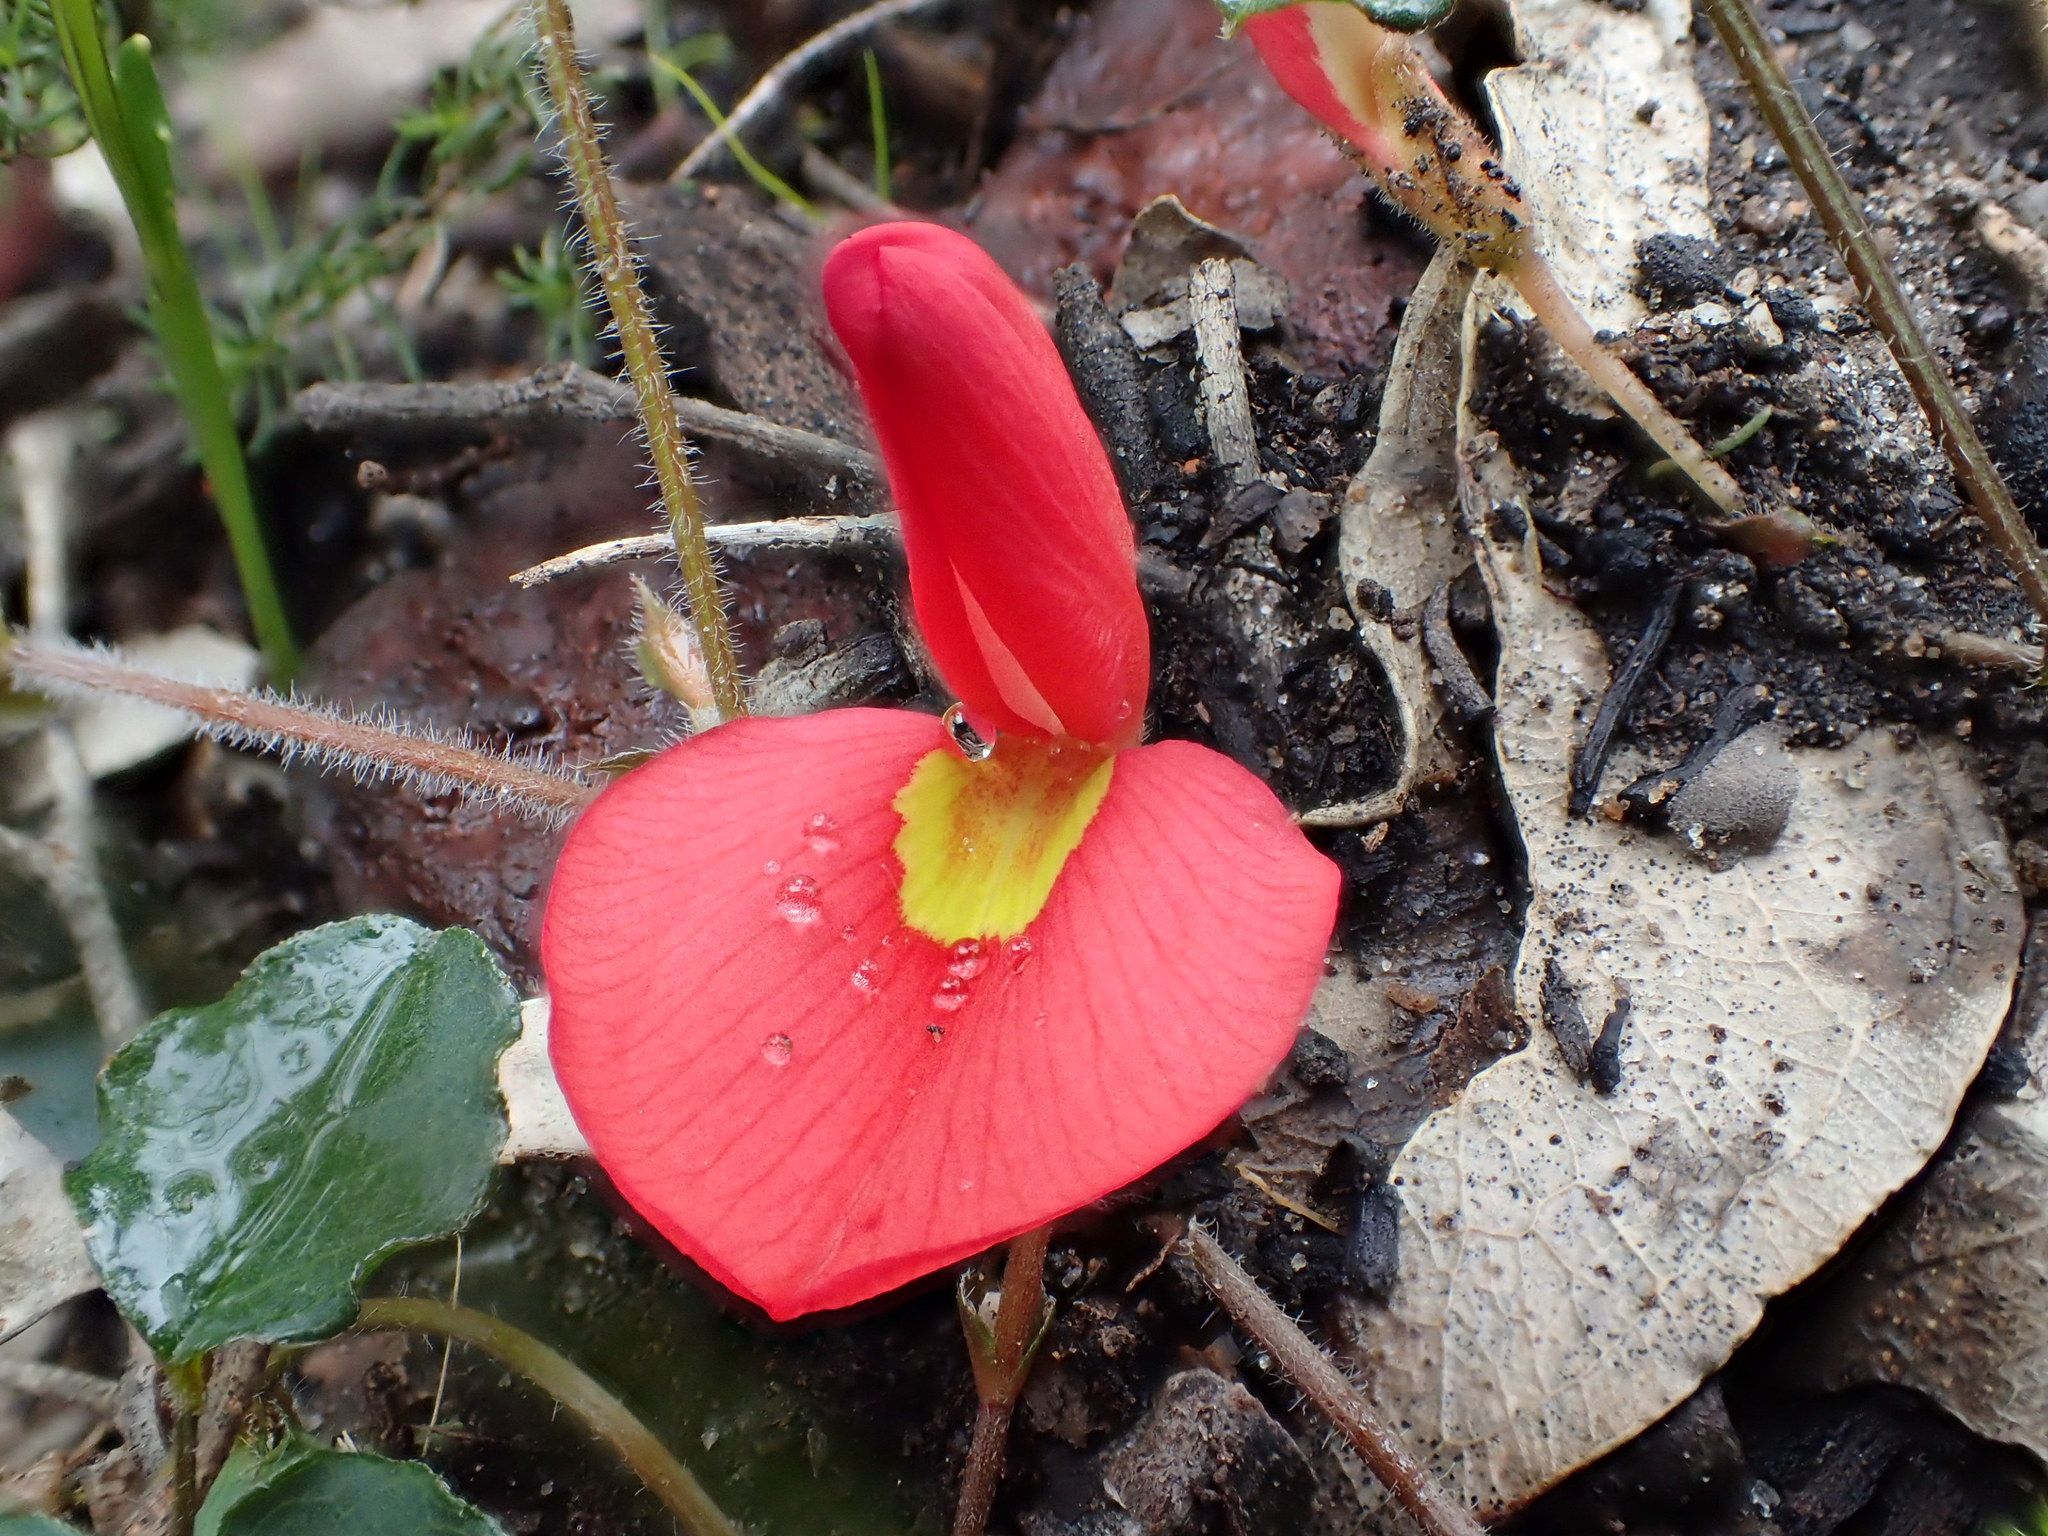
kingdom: Plantae
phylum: Tracheophyta
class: Magnoliopsida
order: Fabales
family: Fabaceae
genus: Kennedia
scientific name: Kennedia prostrata
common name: Running-postman
